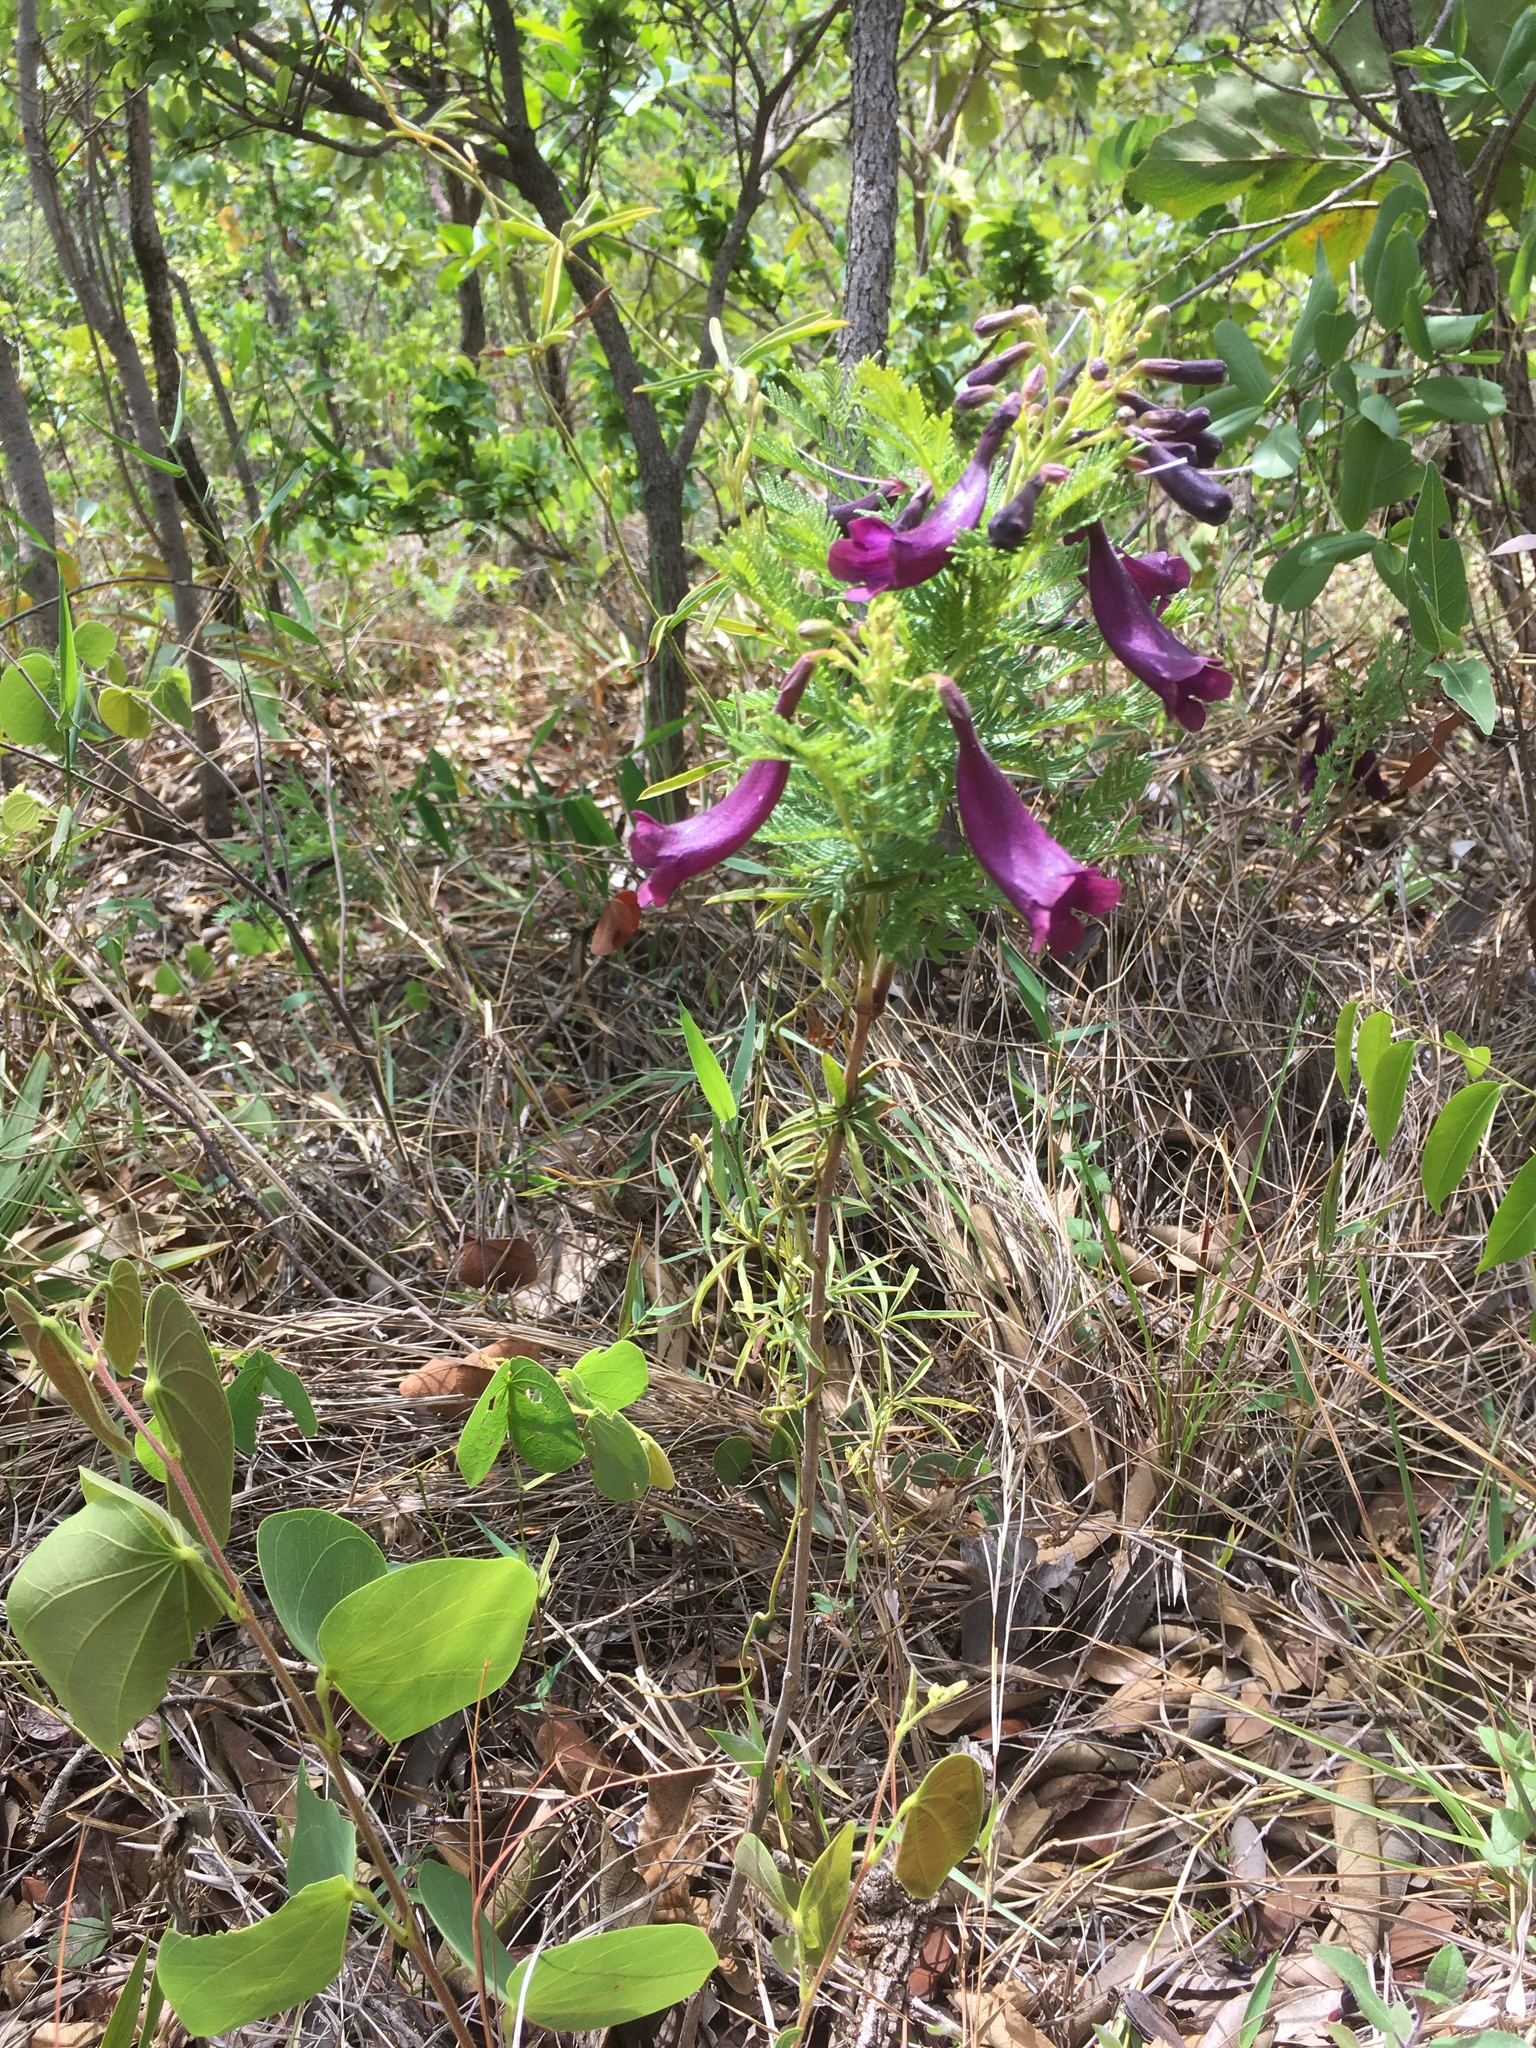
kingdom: Plantae
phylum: Tracheophyta
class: Magnoliopsida
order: Lamiales
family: Bignoniaceae
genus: Jacaranda
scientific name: Jacaranda ulei
